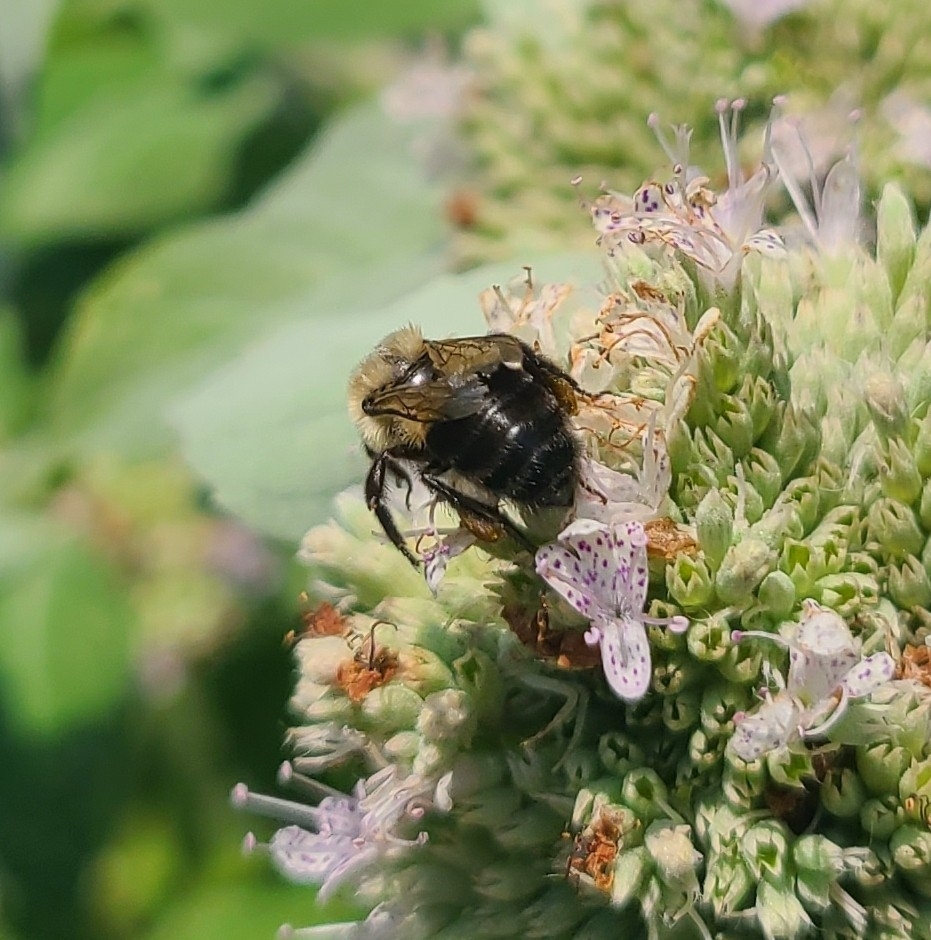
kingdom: Animalia
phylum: Arthropoda
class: Insecta
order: Hymenoptera
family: Apidae
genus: Bombus
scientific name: Bombus impatiens
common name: Common eastern bumble bee
